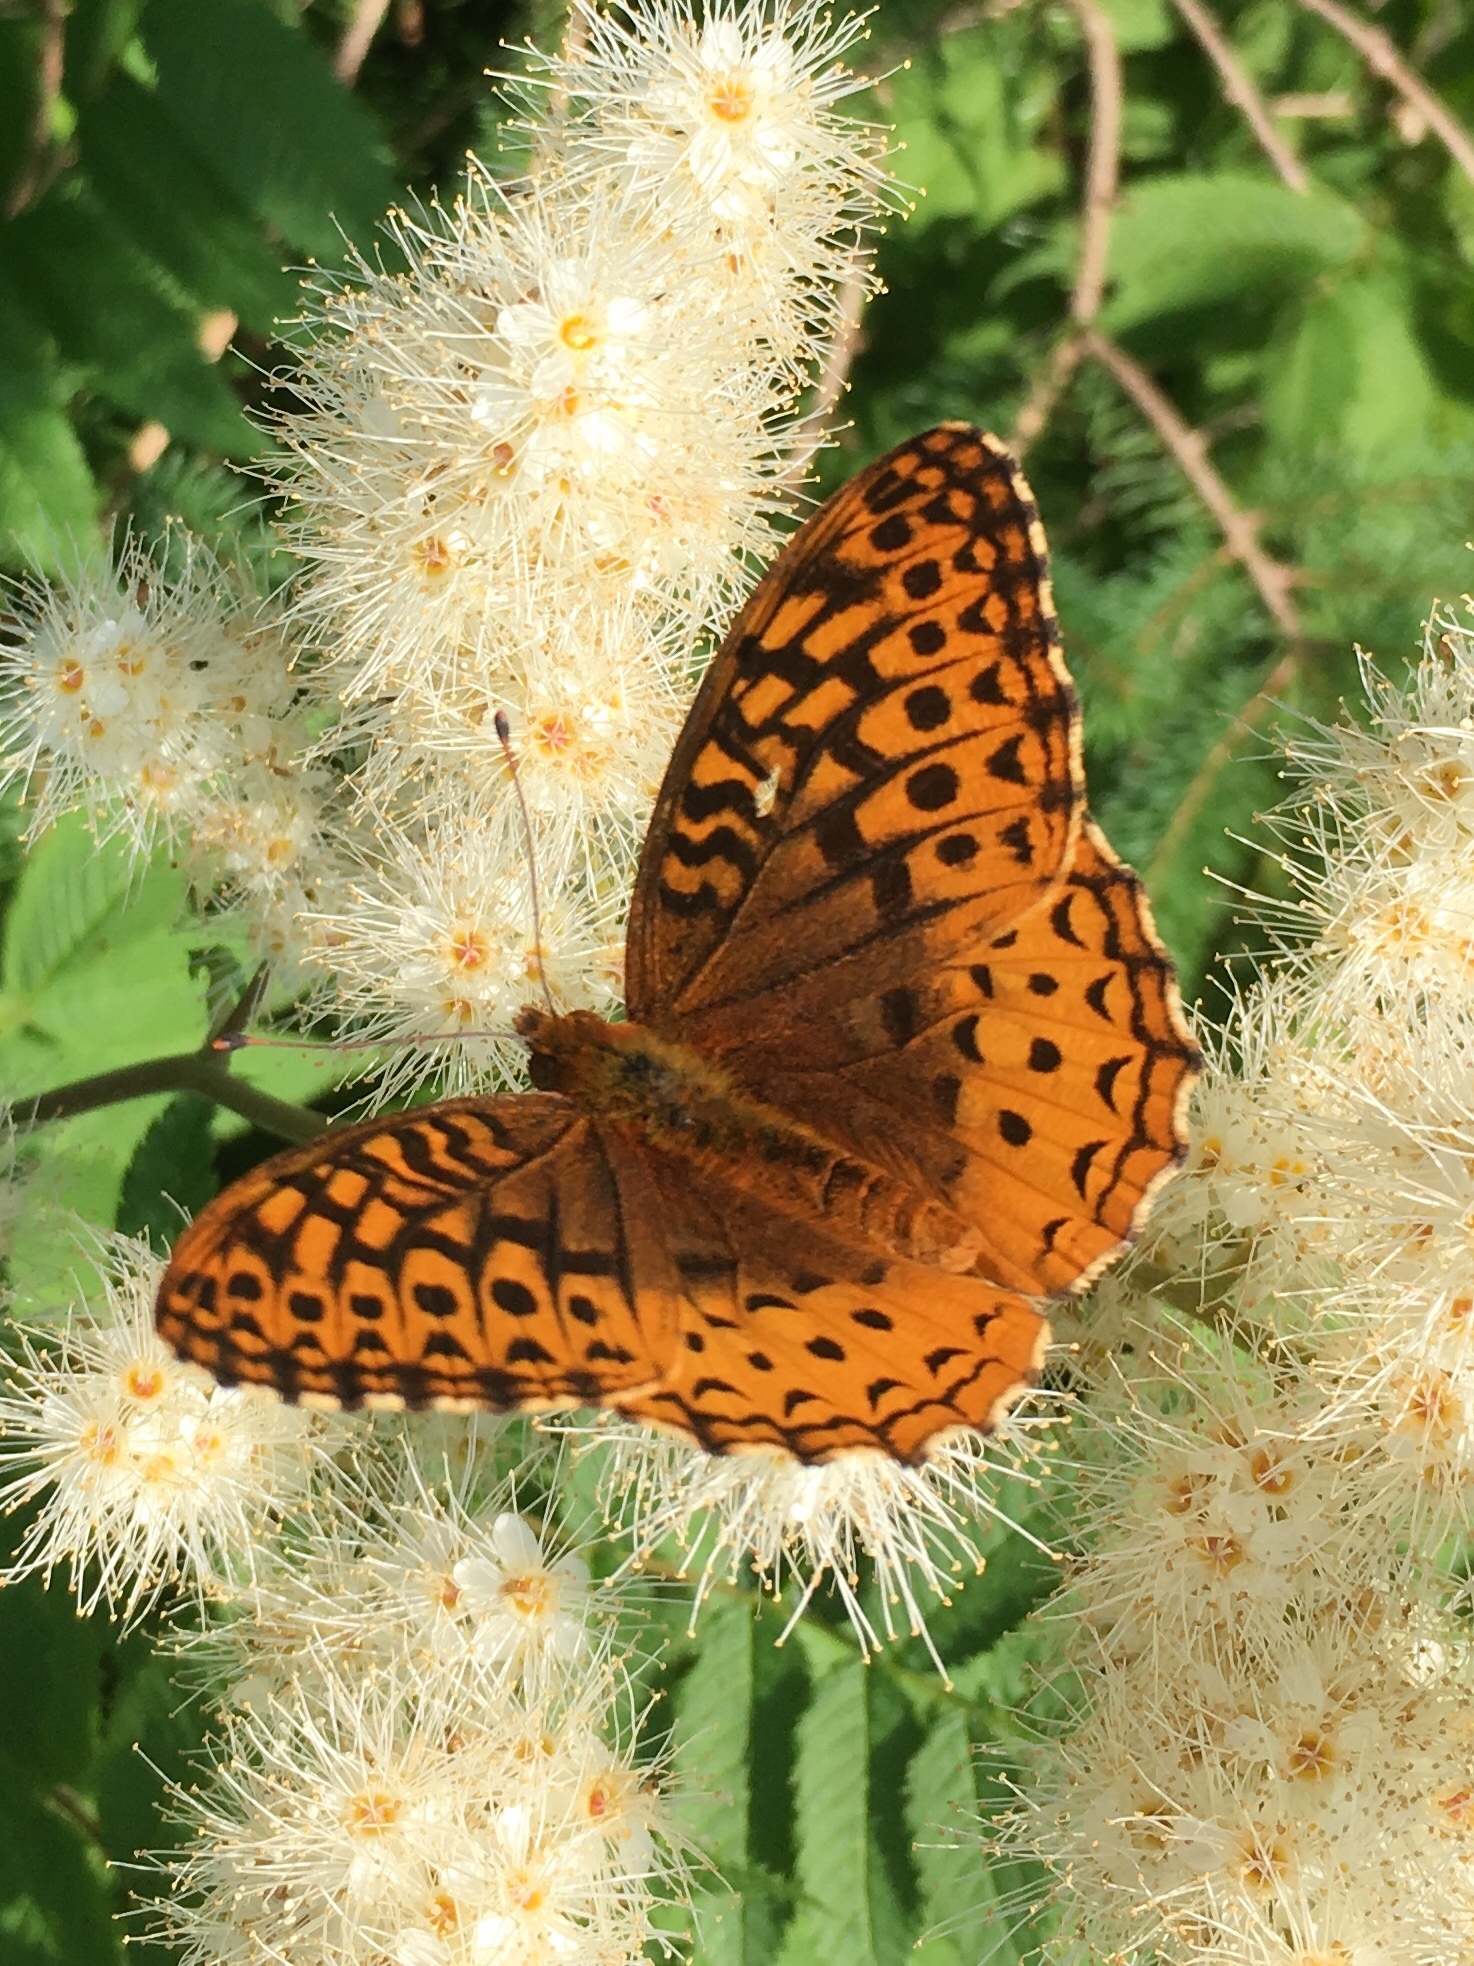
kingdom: Animalia
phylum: Arthropoda
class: Insecta
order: Lepidoptera
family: Nymphalidae
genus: Speyeria
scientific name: Speyeria cybele
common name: Great spangled fritillary
